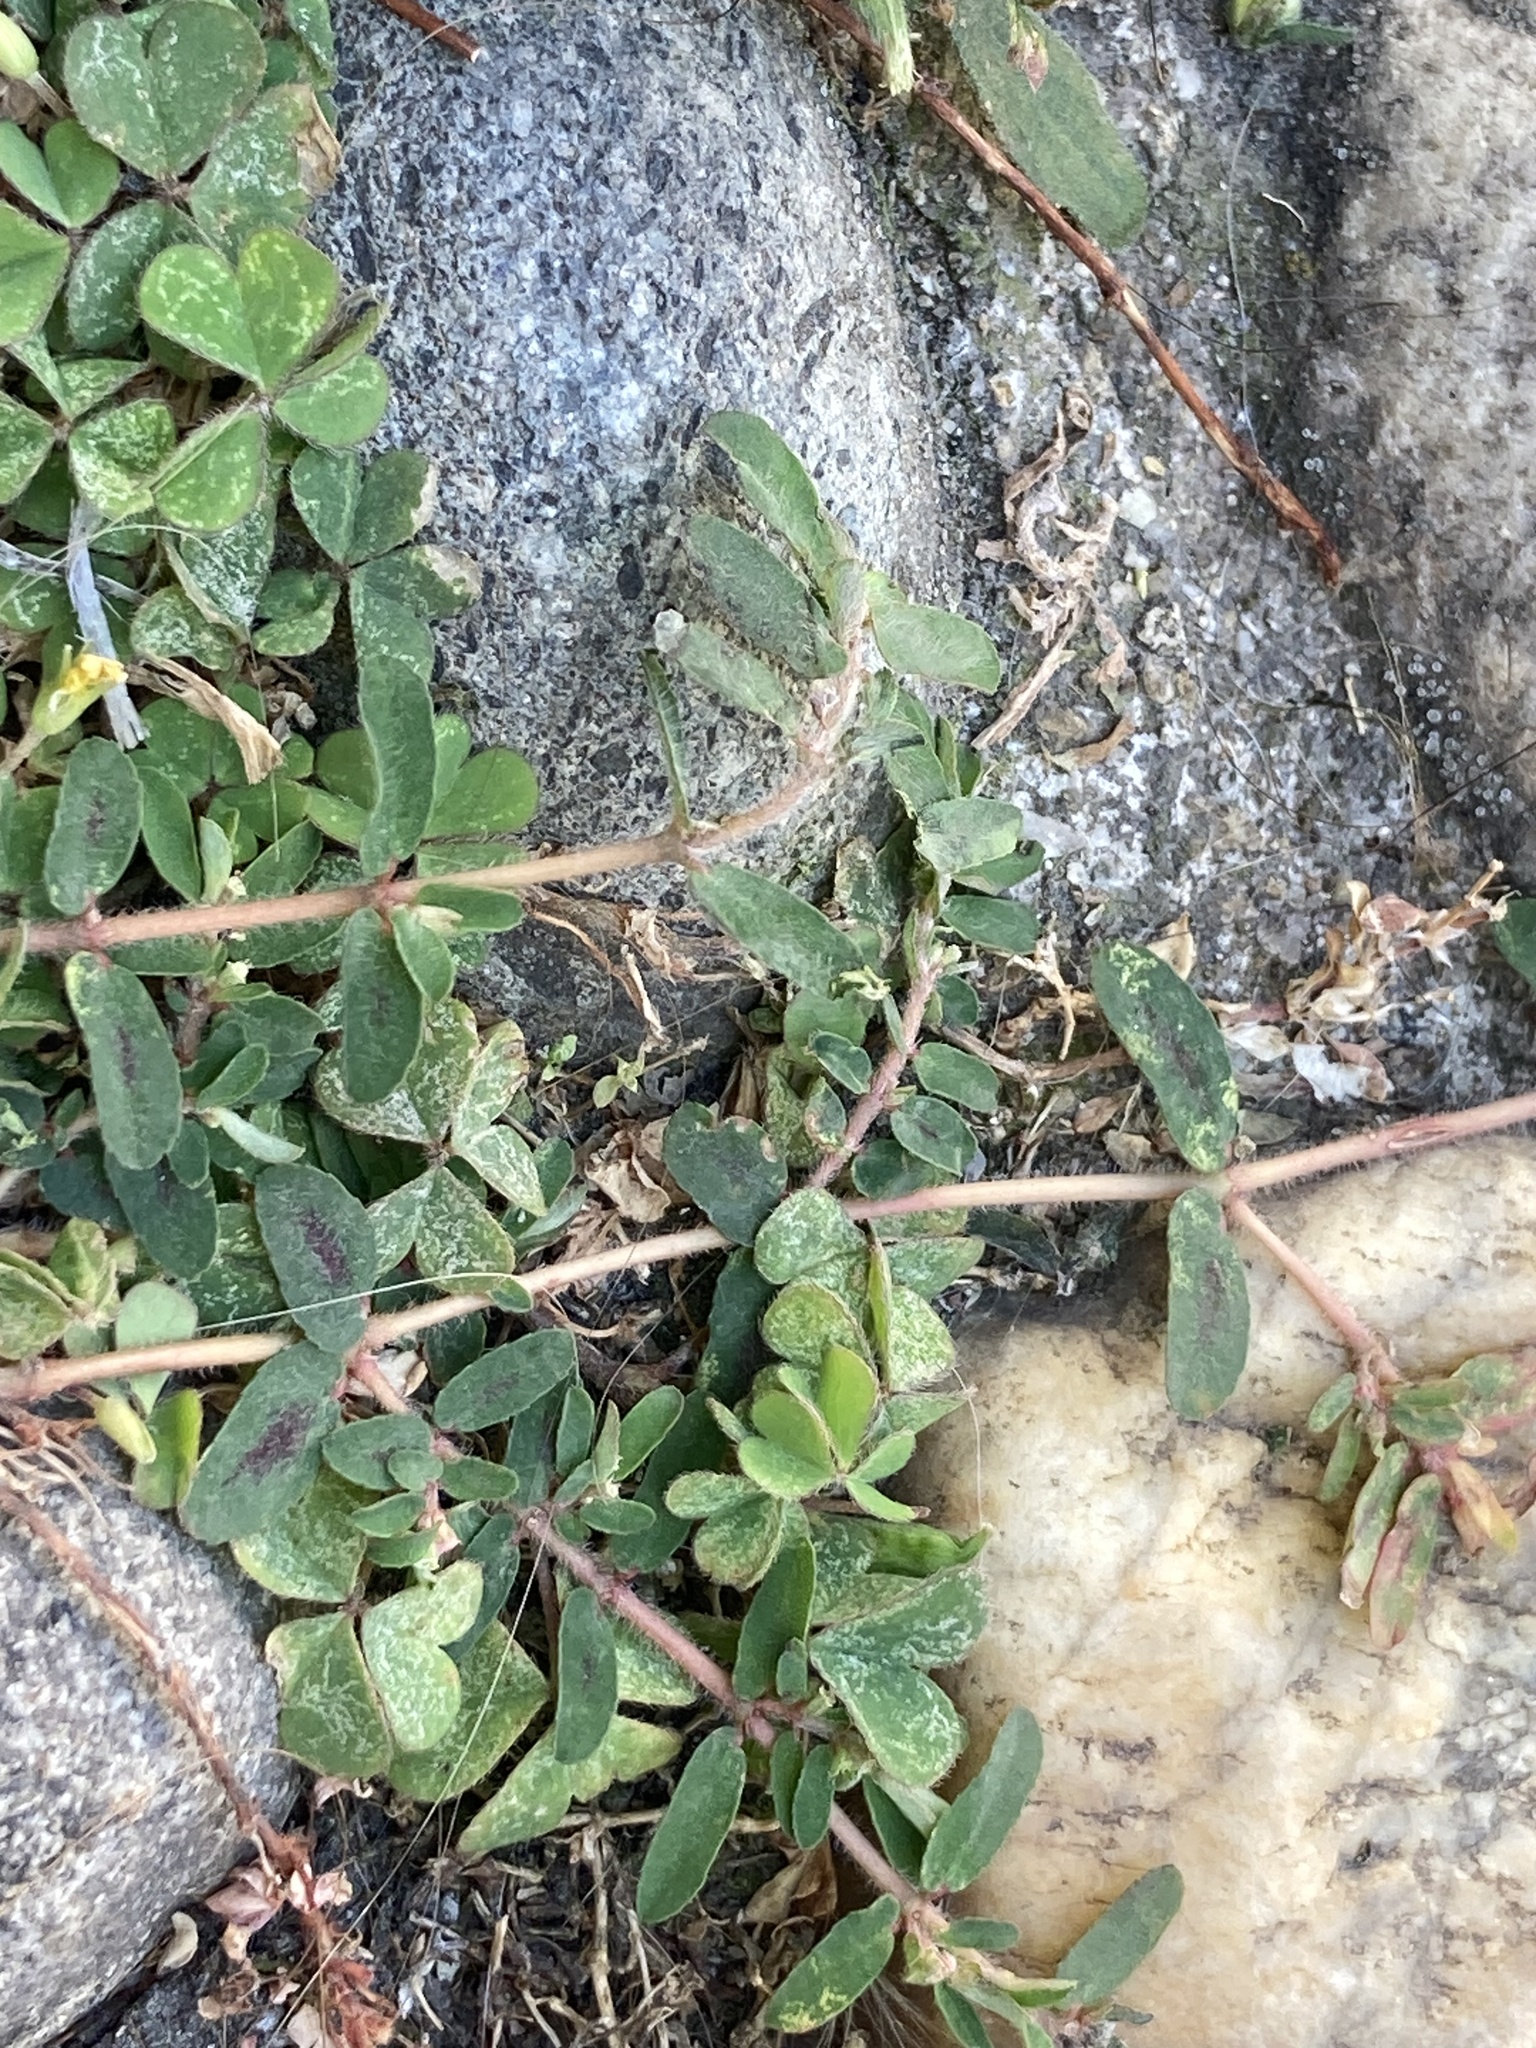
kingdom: Plantae
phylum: Tracheophyta
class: Magnoliopsida
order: Malpighiales
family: Euphorbiaceae
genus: Euphorbia
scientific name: Euphorbia maculata
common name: Spotted spurge
